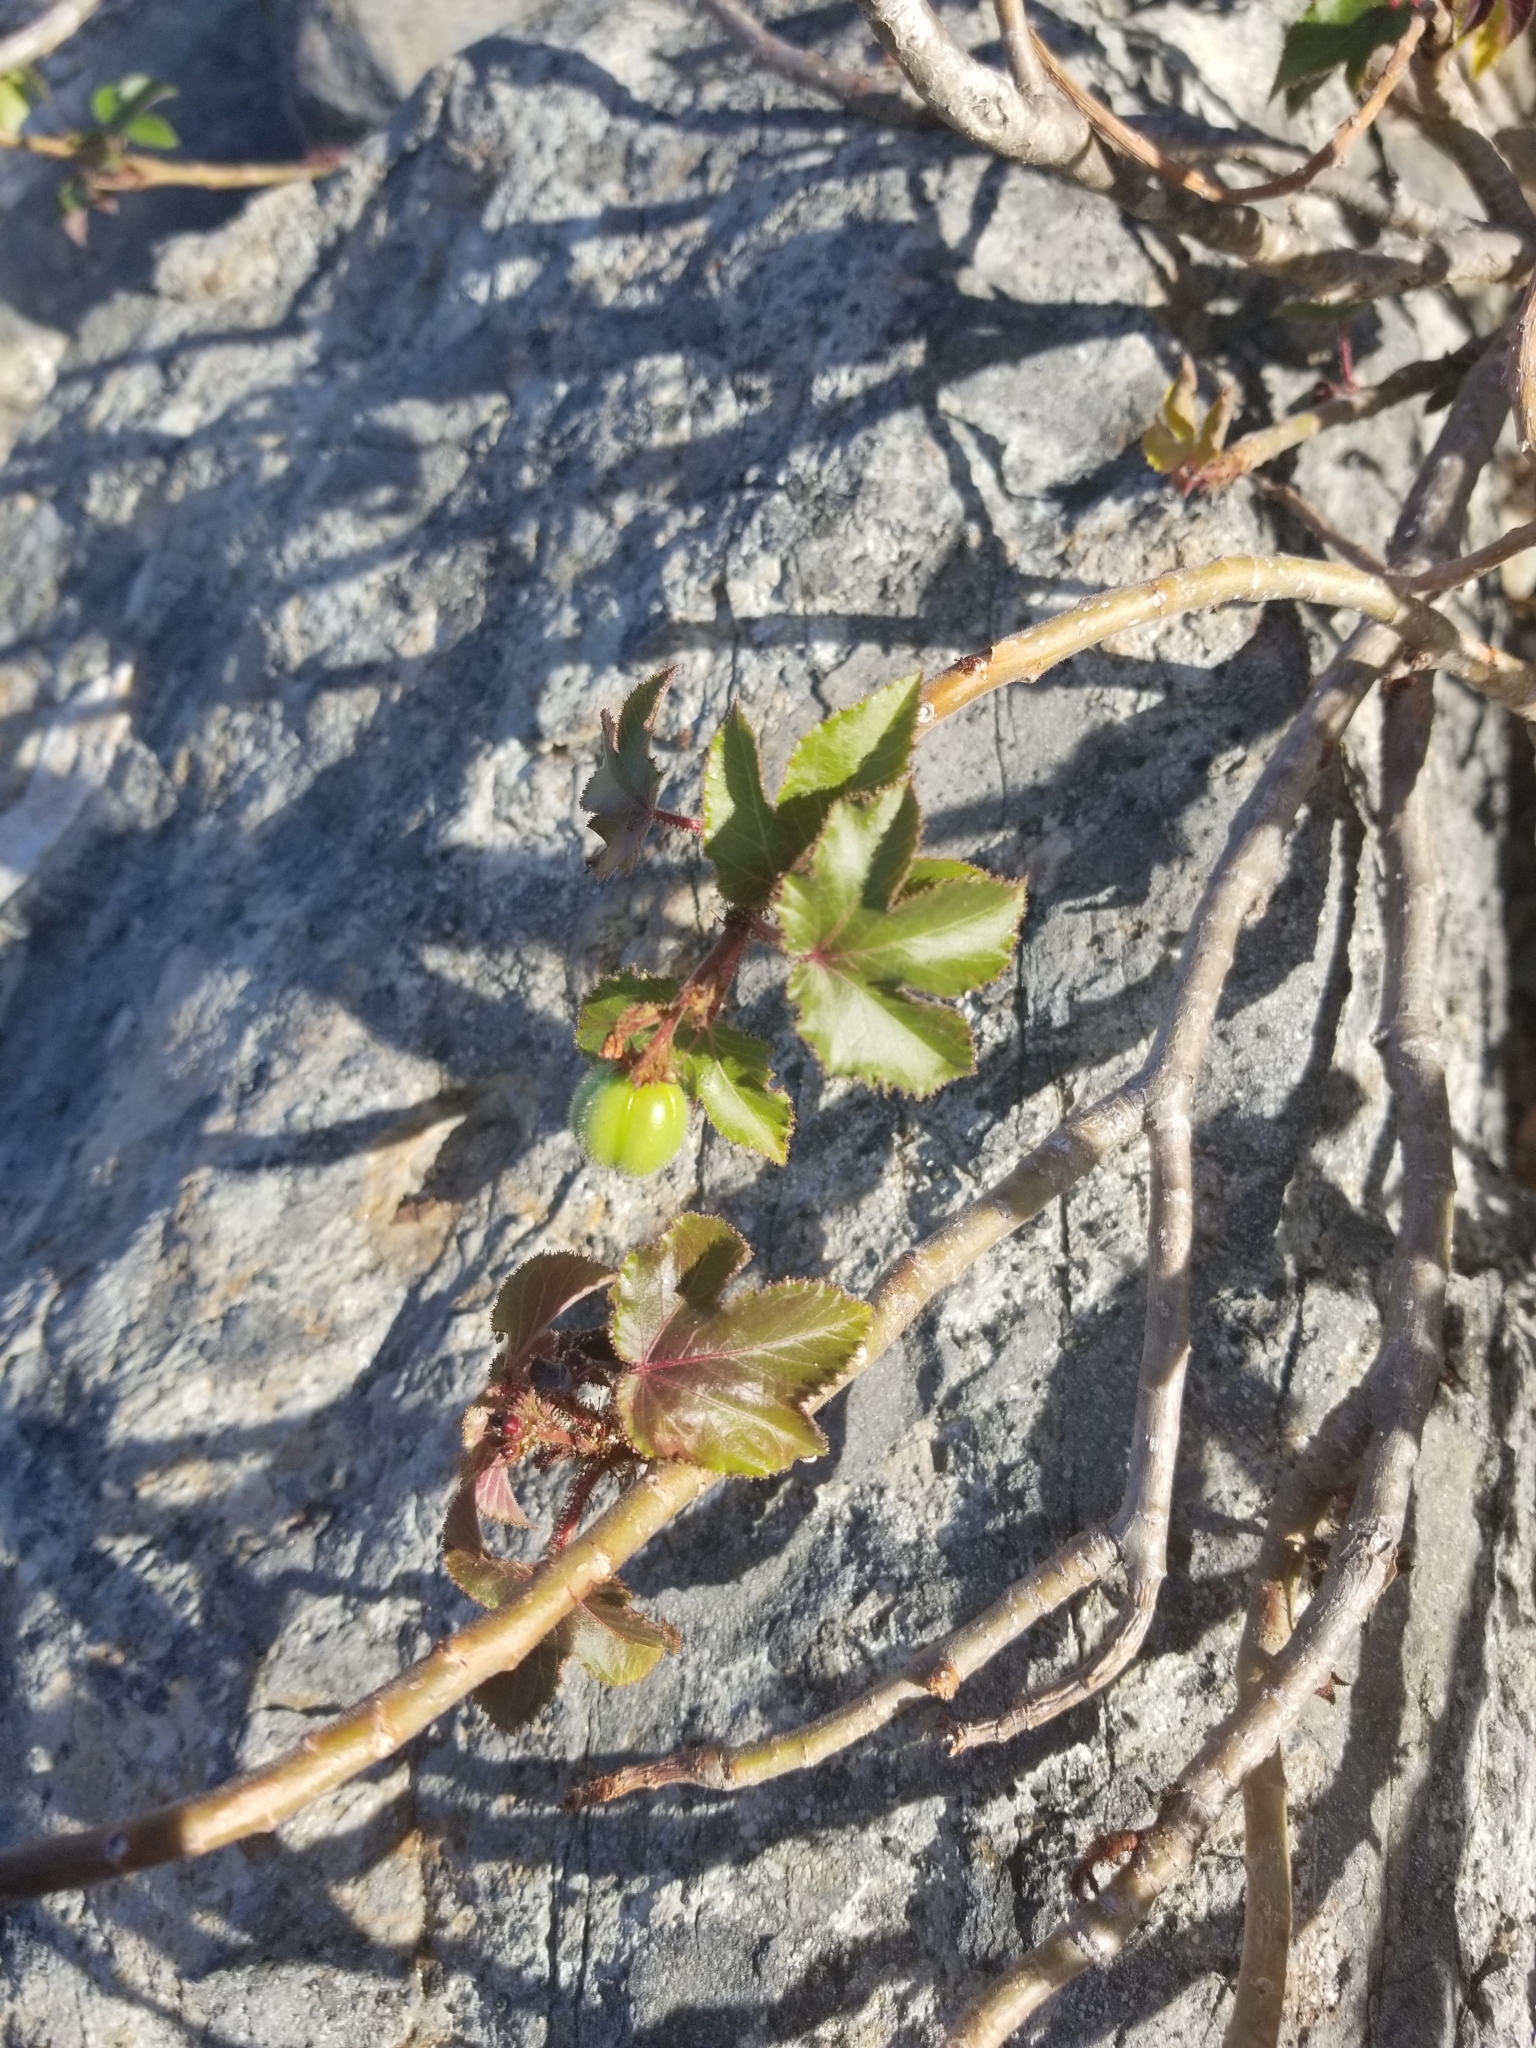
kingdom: Plantae
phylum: Tracheophyta
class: Magnoliopsida
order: Malpighiales
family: Euphorbiaceae
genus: Jatropha
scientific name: Jatropha gossypiifolia
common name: Bellyache bush
